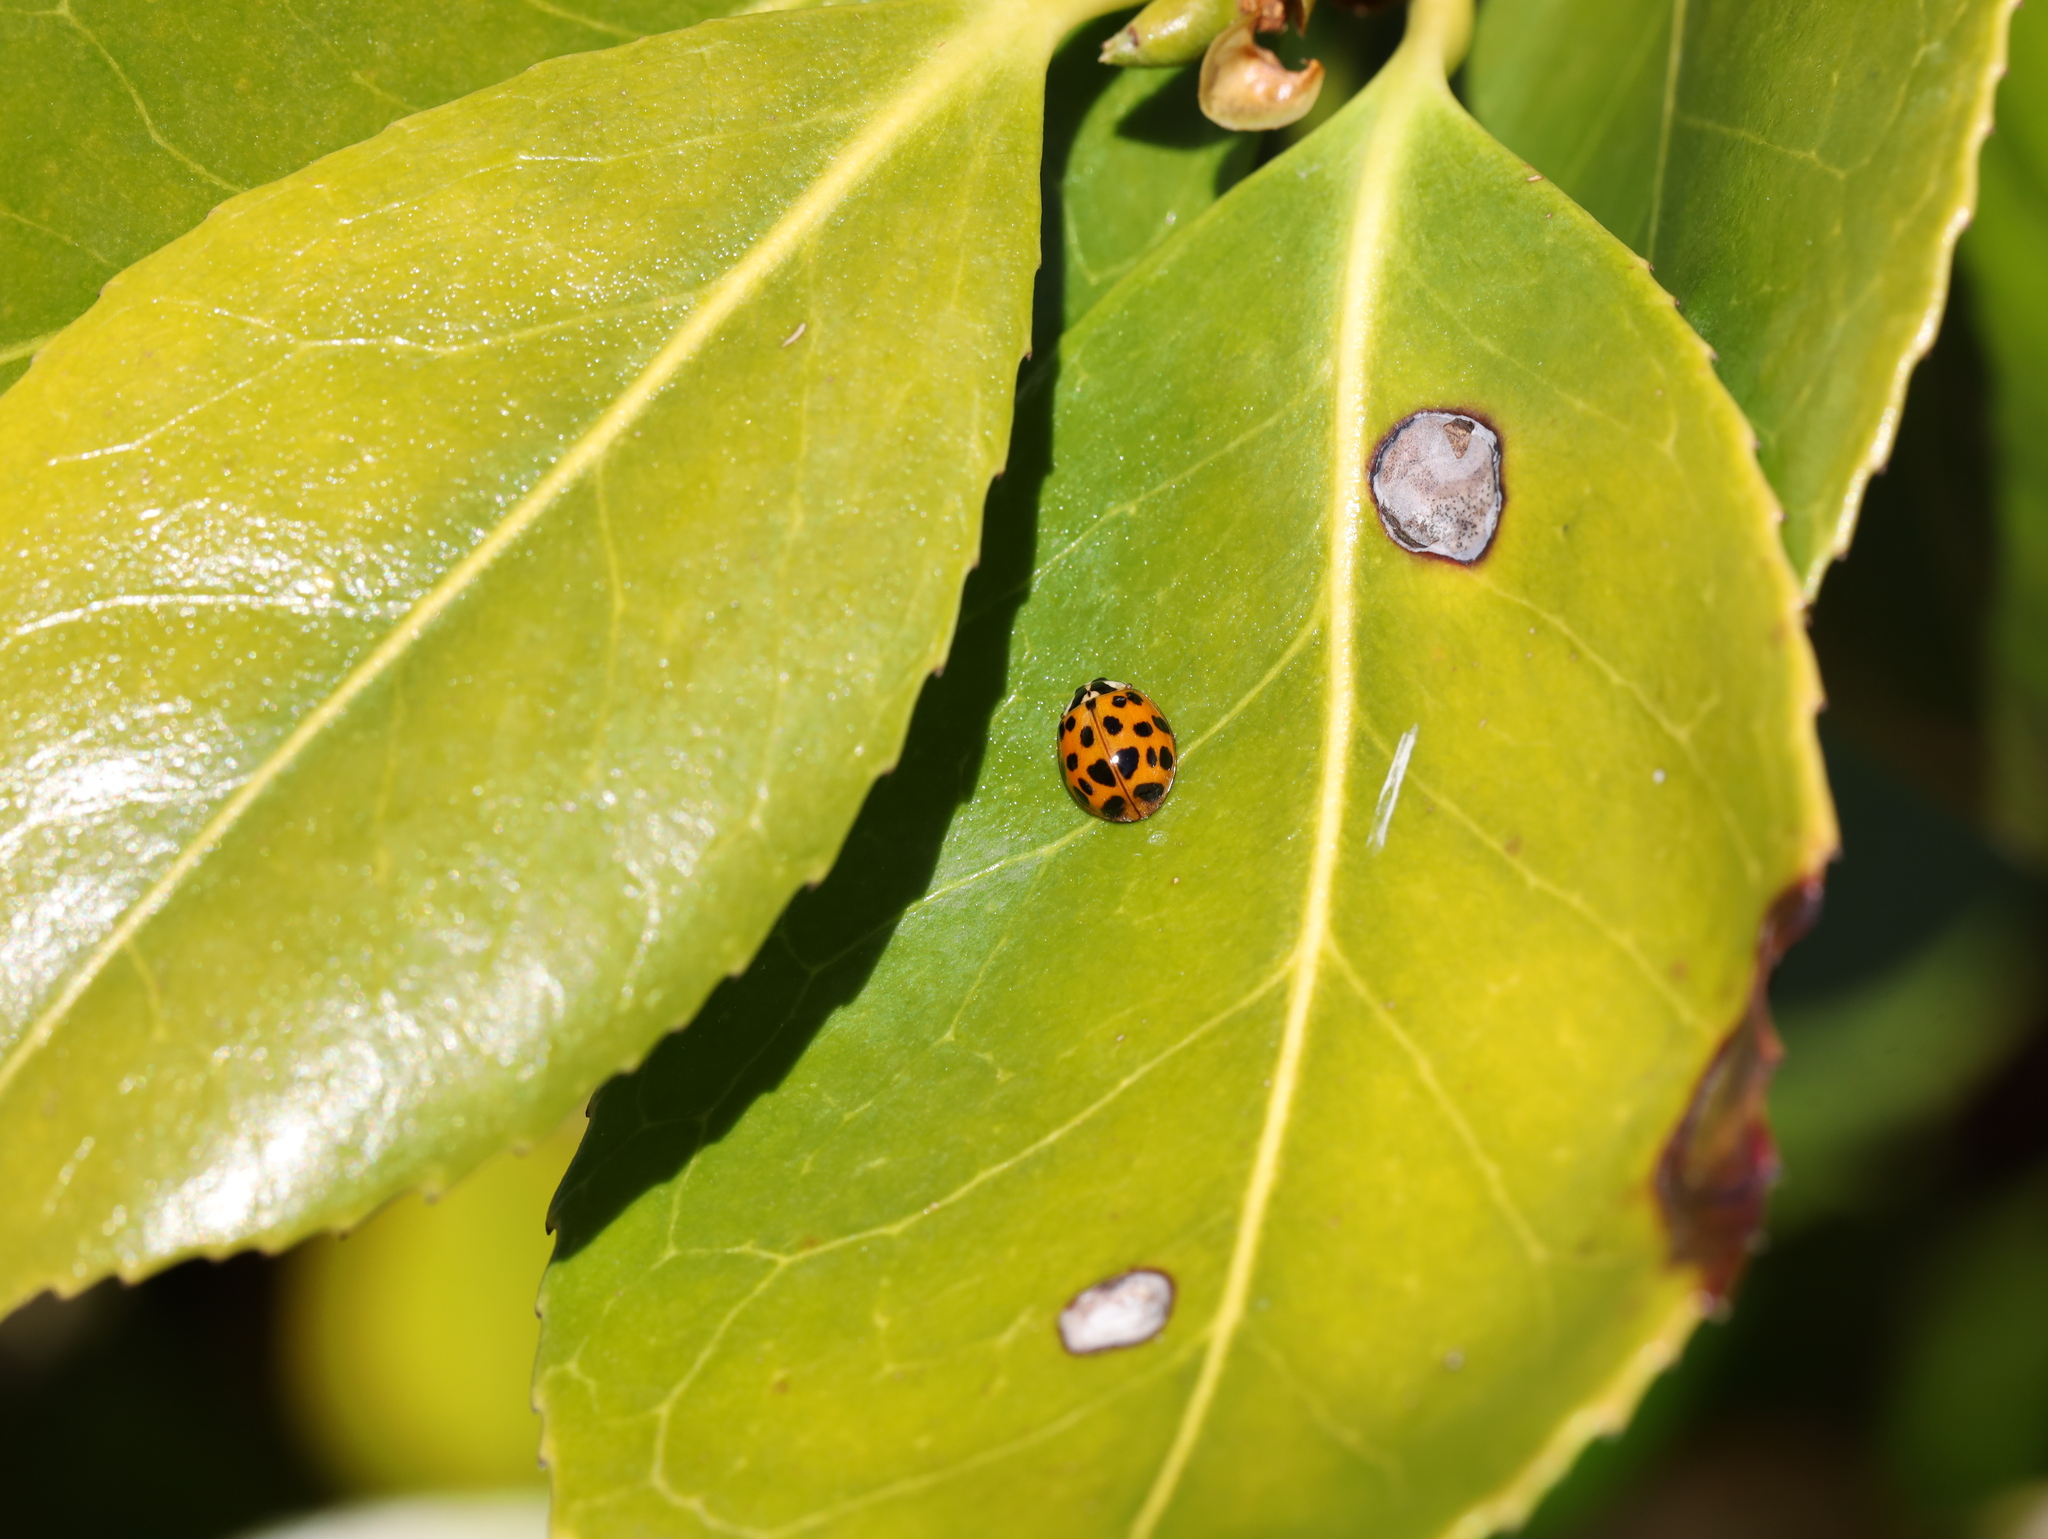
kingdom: Animalia
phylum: Arthropoda
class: Insecta
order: Coleoptera
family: Coccinellidae
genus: Harmonia
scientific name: Harmonia axyridis
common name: Harlequin ladybird
